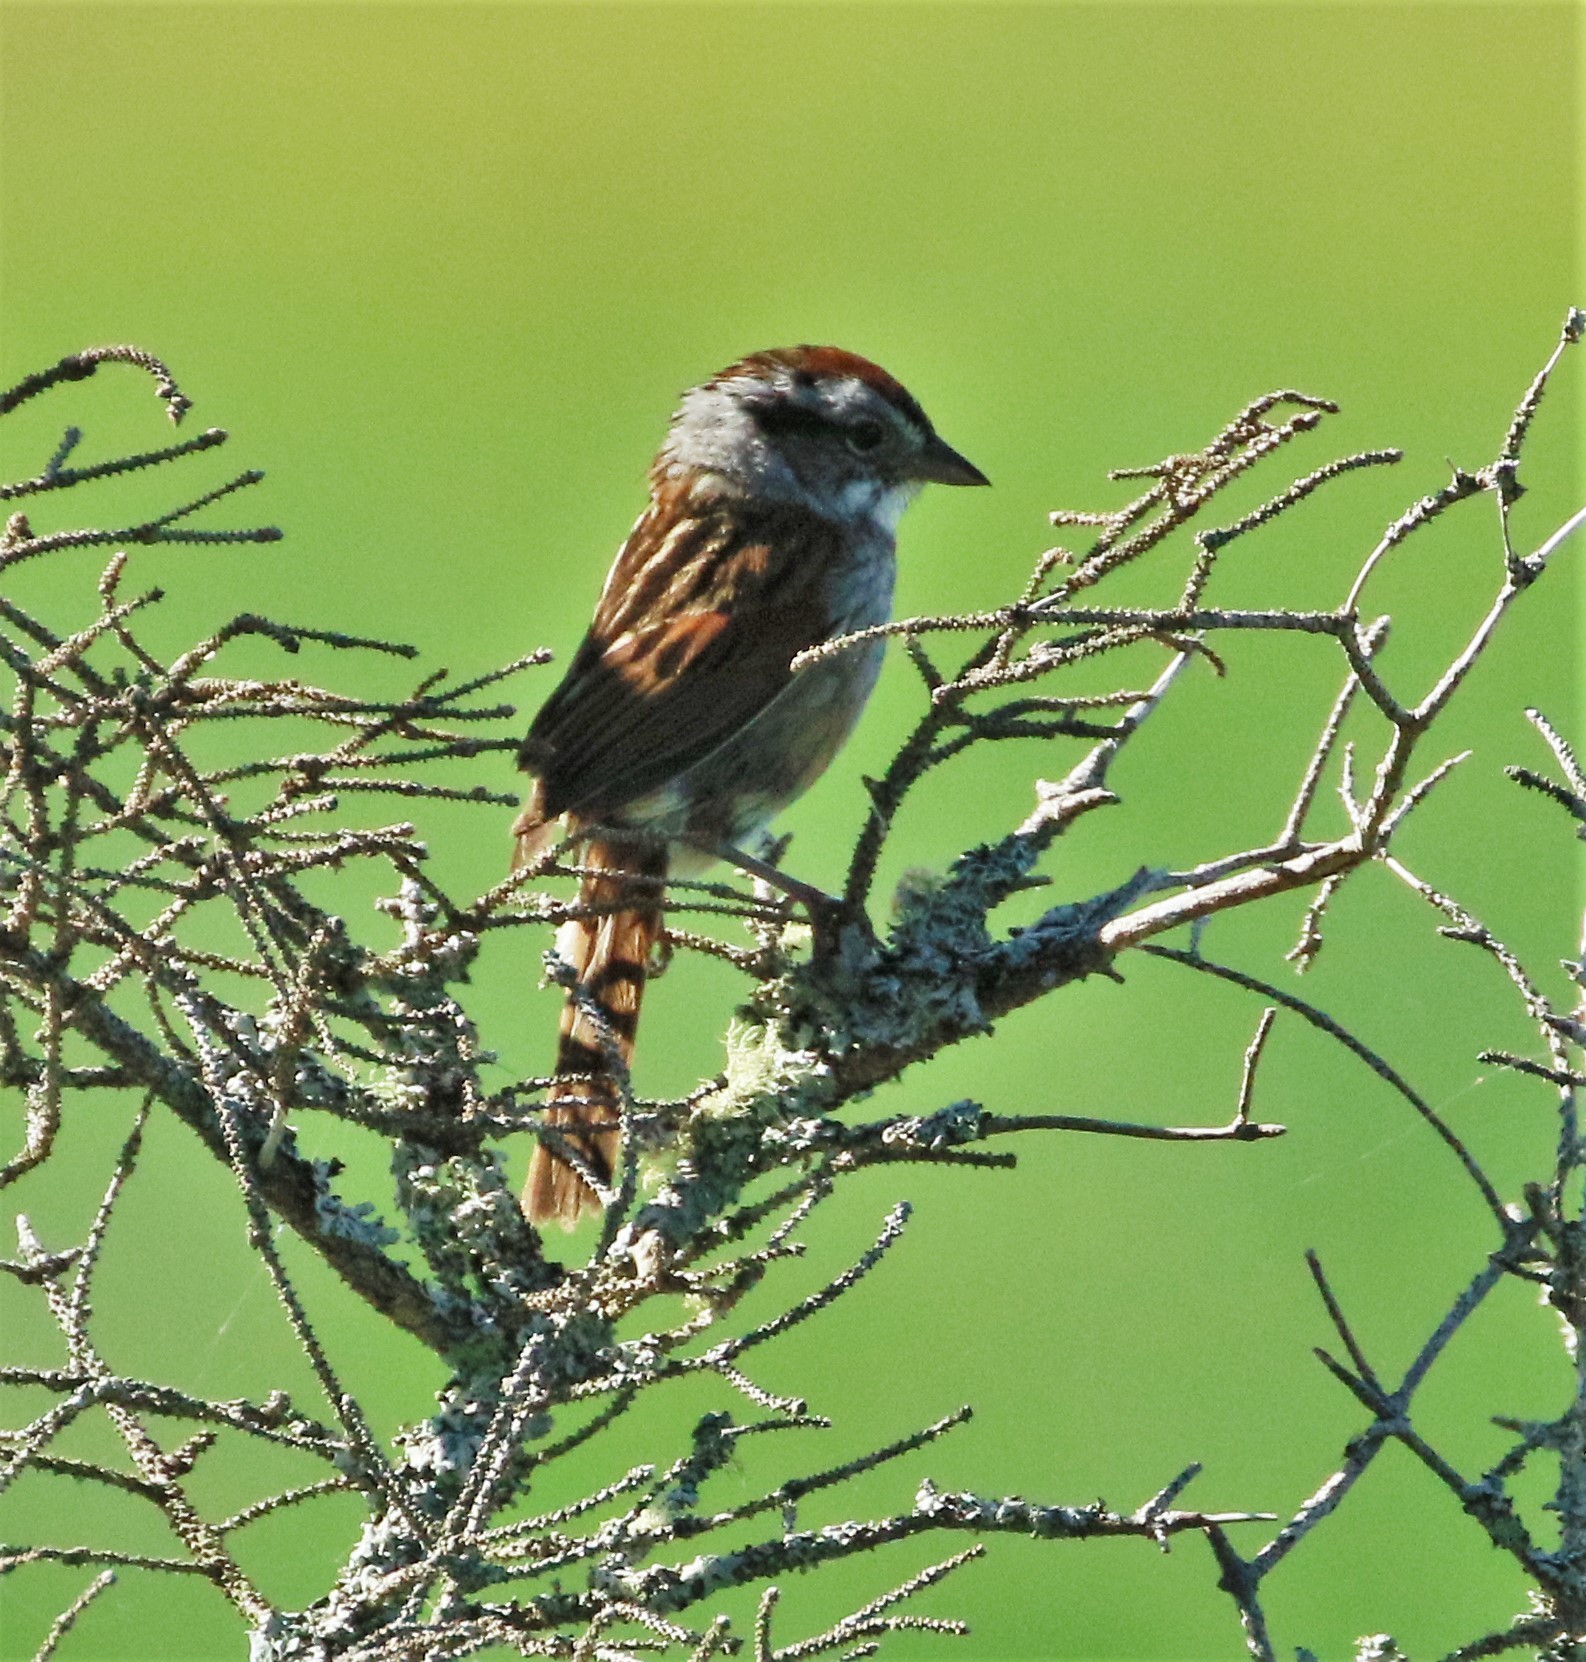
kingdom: Animalia
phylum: Chordata
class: Aves
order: Passeriformes
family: Passerellidae
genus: Melospiza
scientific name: Melospiza georgiana
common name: Swamp sparrow
